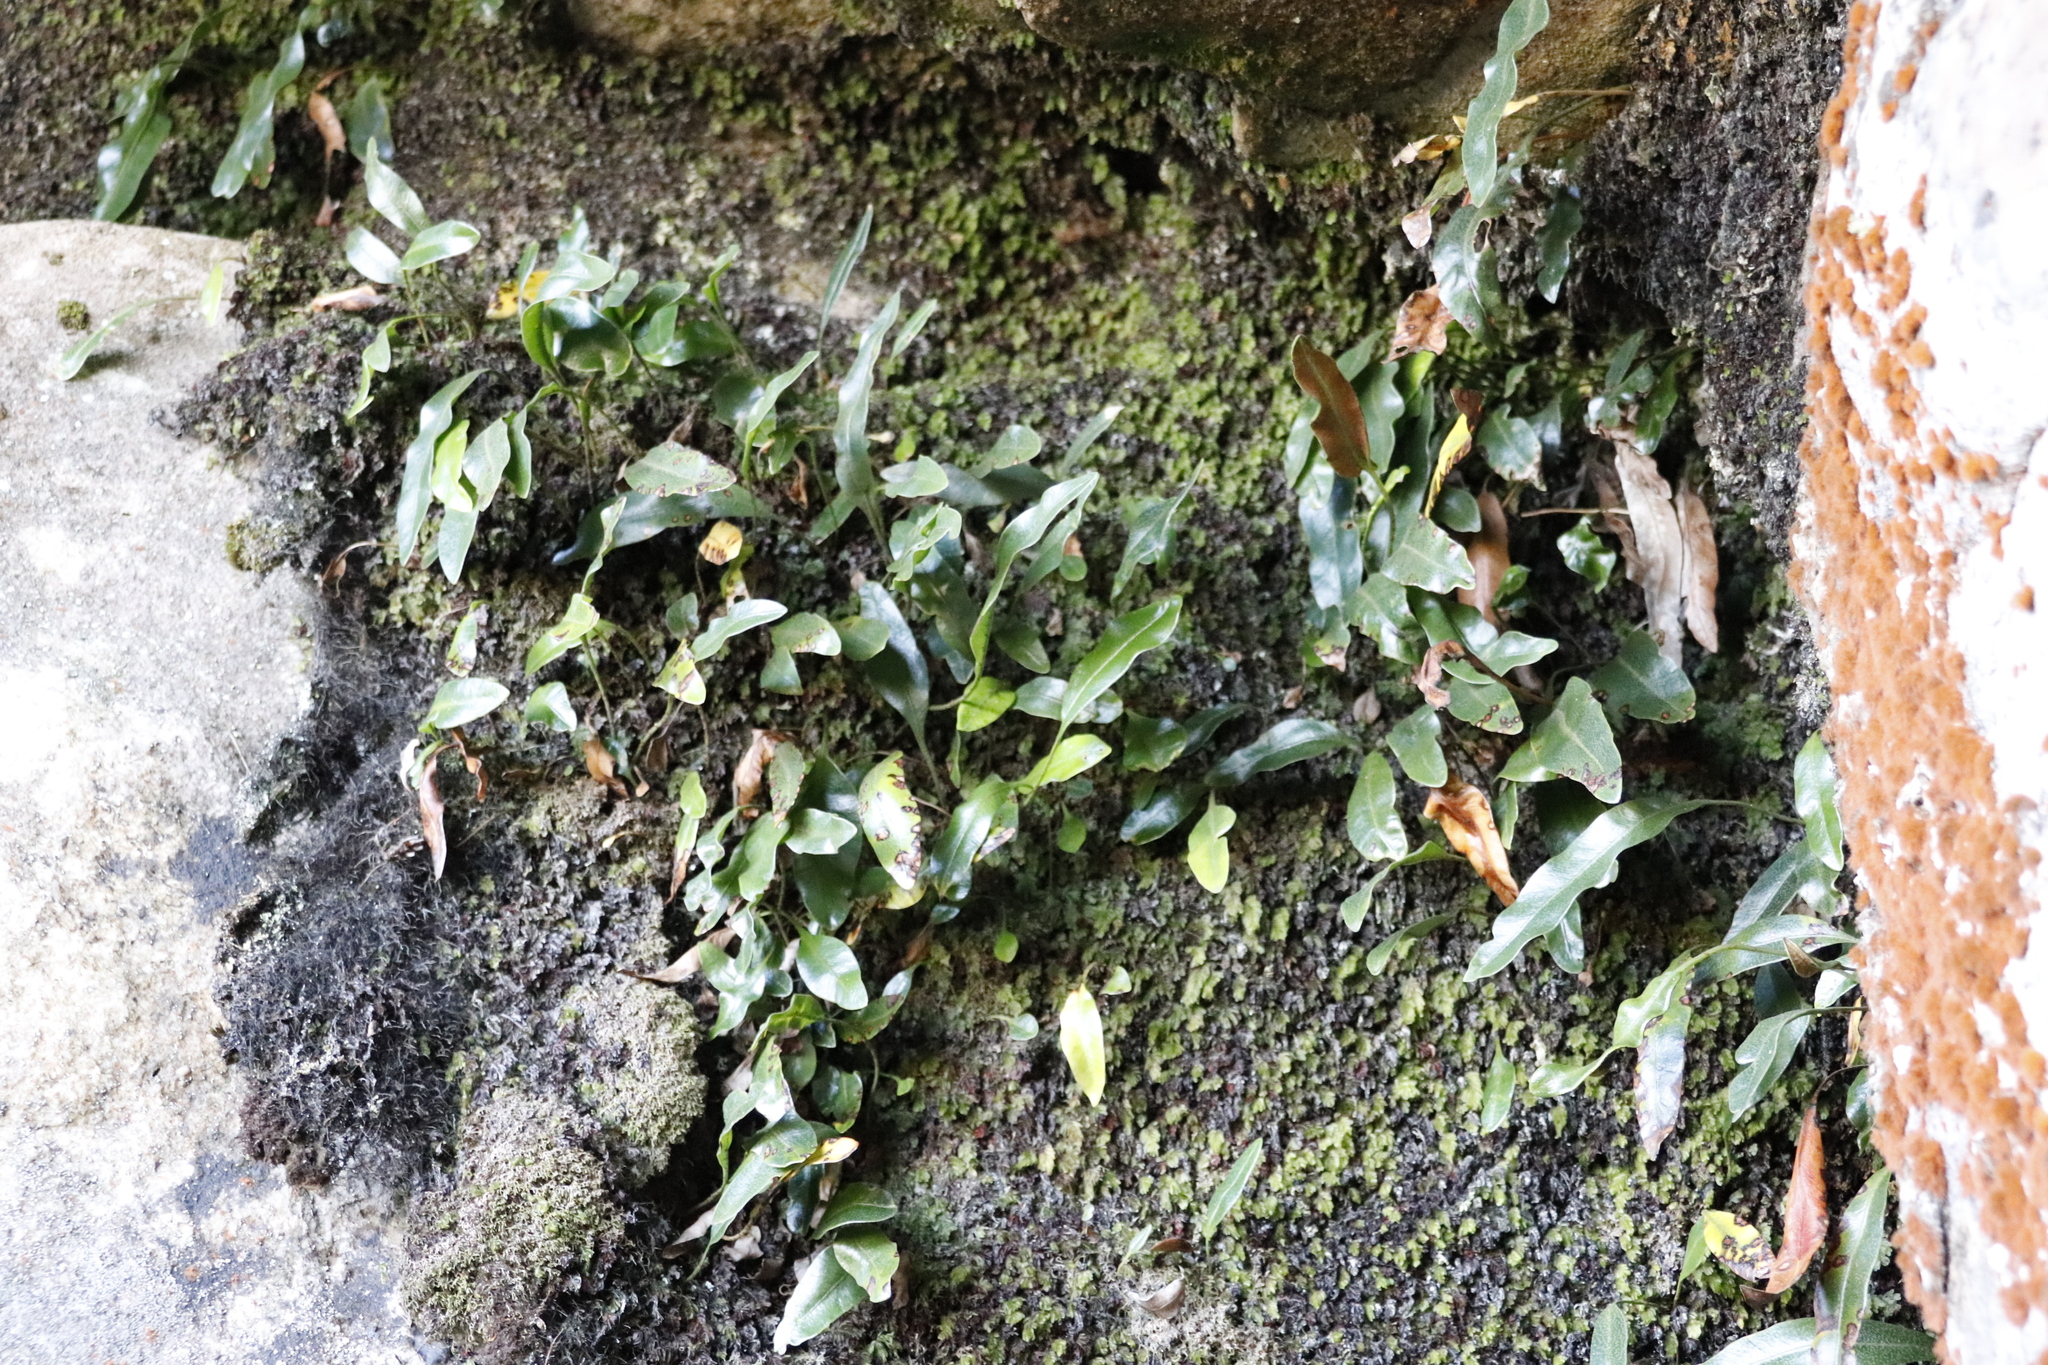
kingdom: Plantae
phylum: Tracheophyta
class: Polypodiopsida
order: Polypodiales
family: Dryopteridaceae
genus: Elaphoglossum
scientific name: Elaphoglossum angustatum
